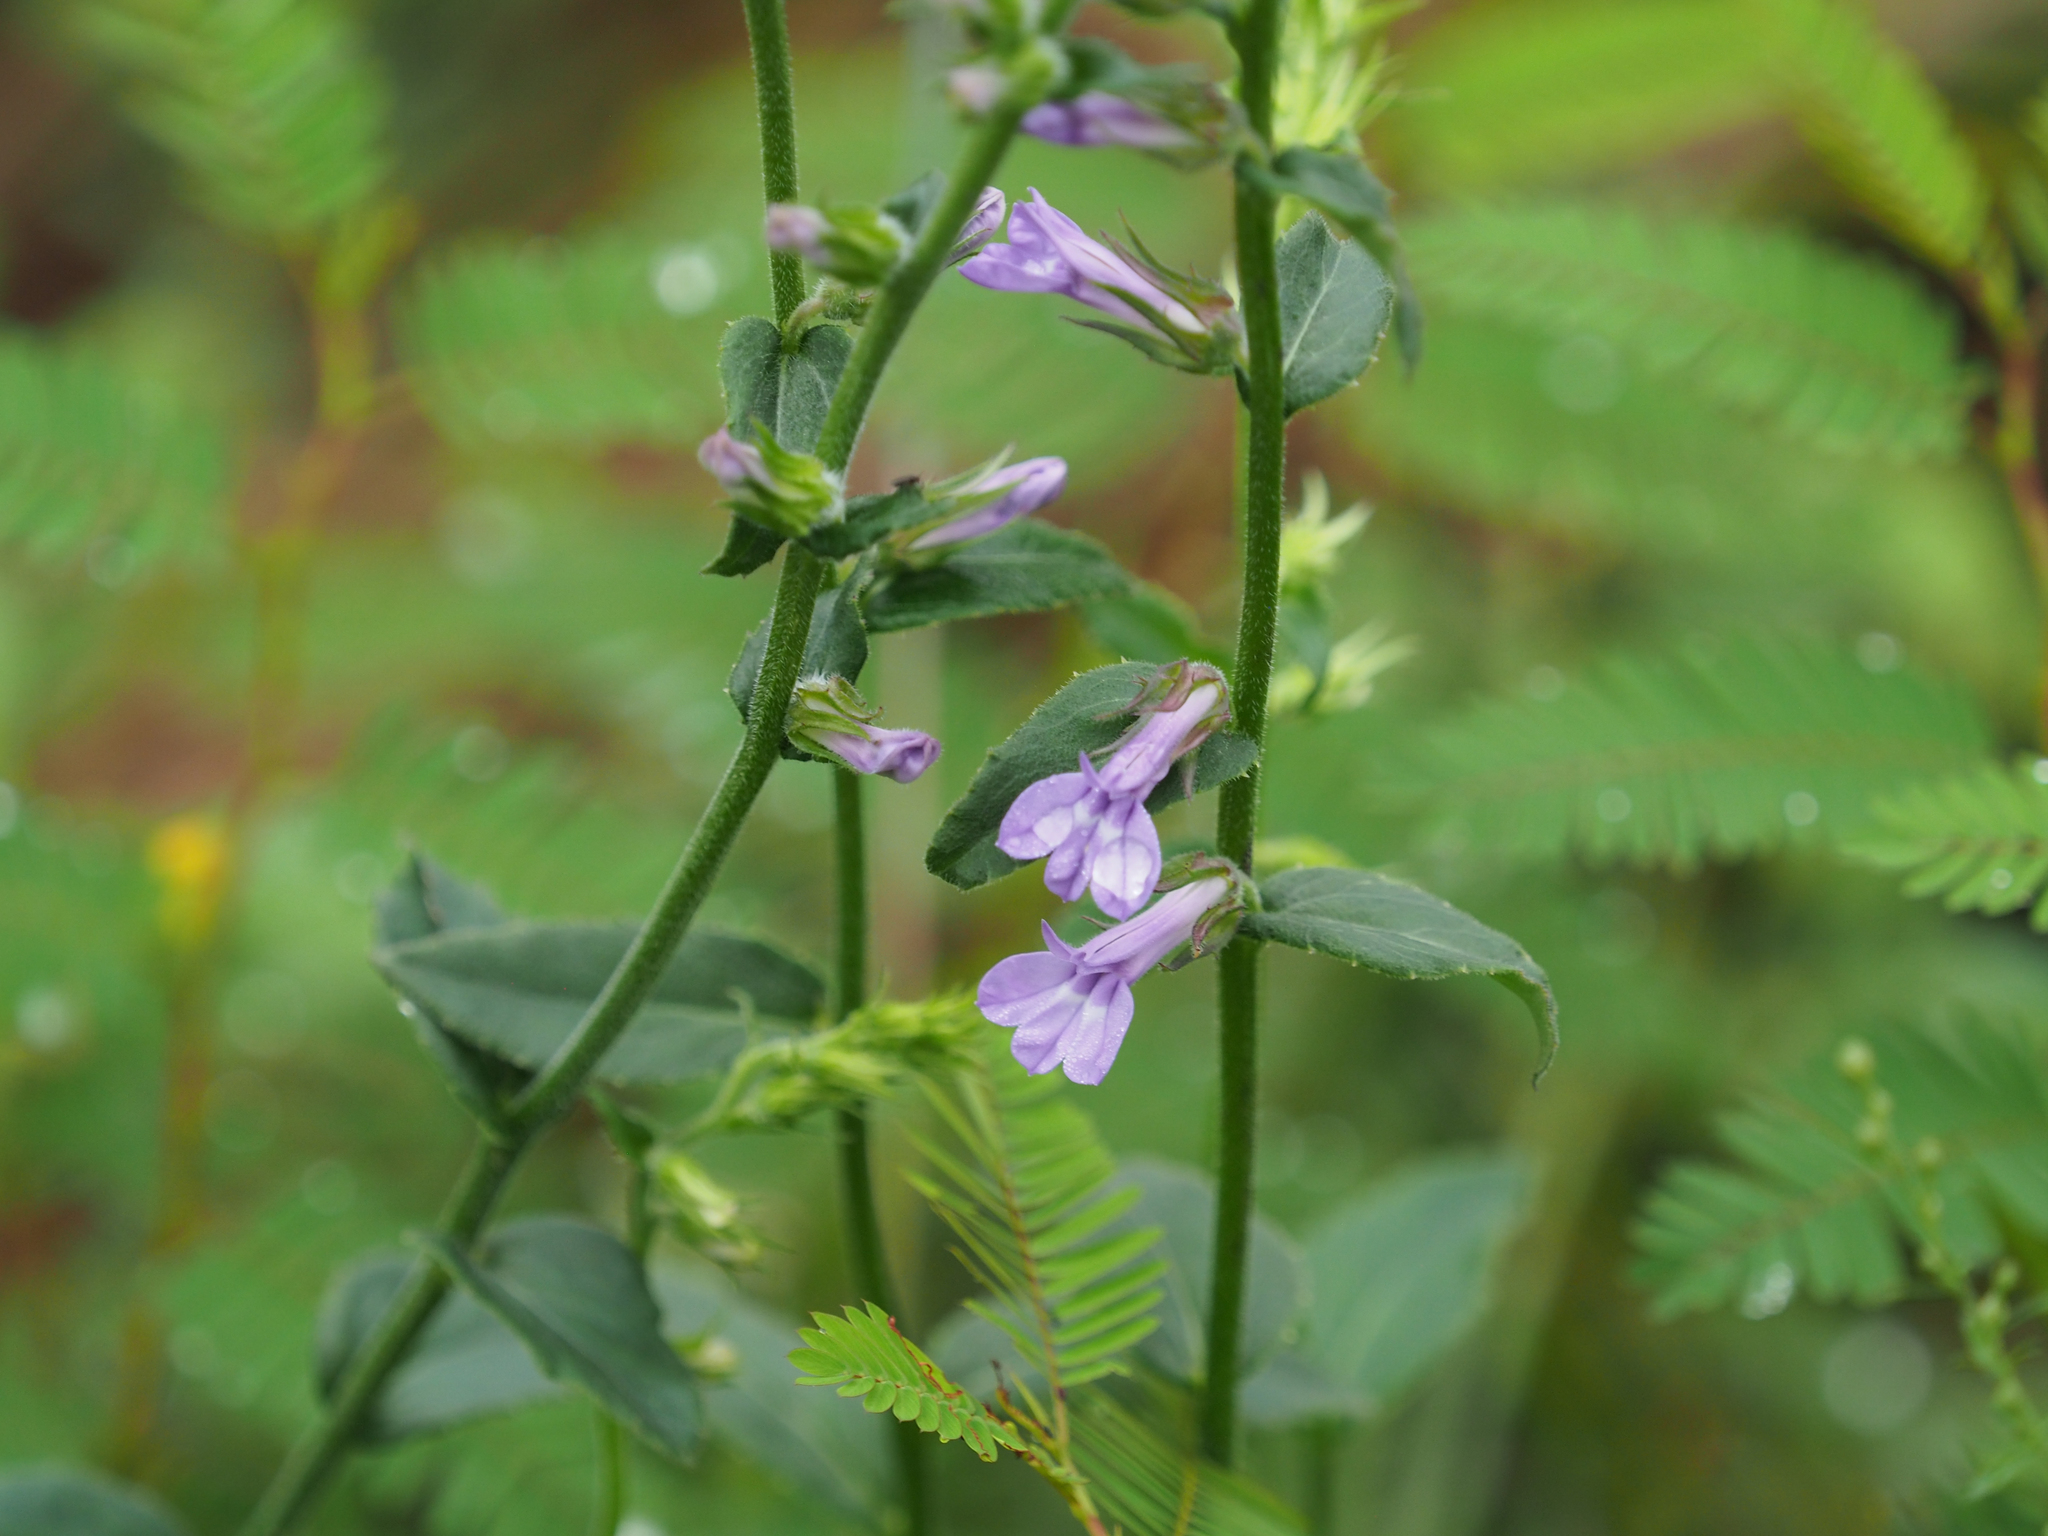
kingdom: Plantae
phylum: Tracheophyta
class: Magnoliopsida
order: Asterales
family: Campanulaceae
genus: Lobelia
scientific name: Lobelia puberula
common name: Purple dewdrop
